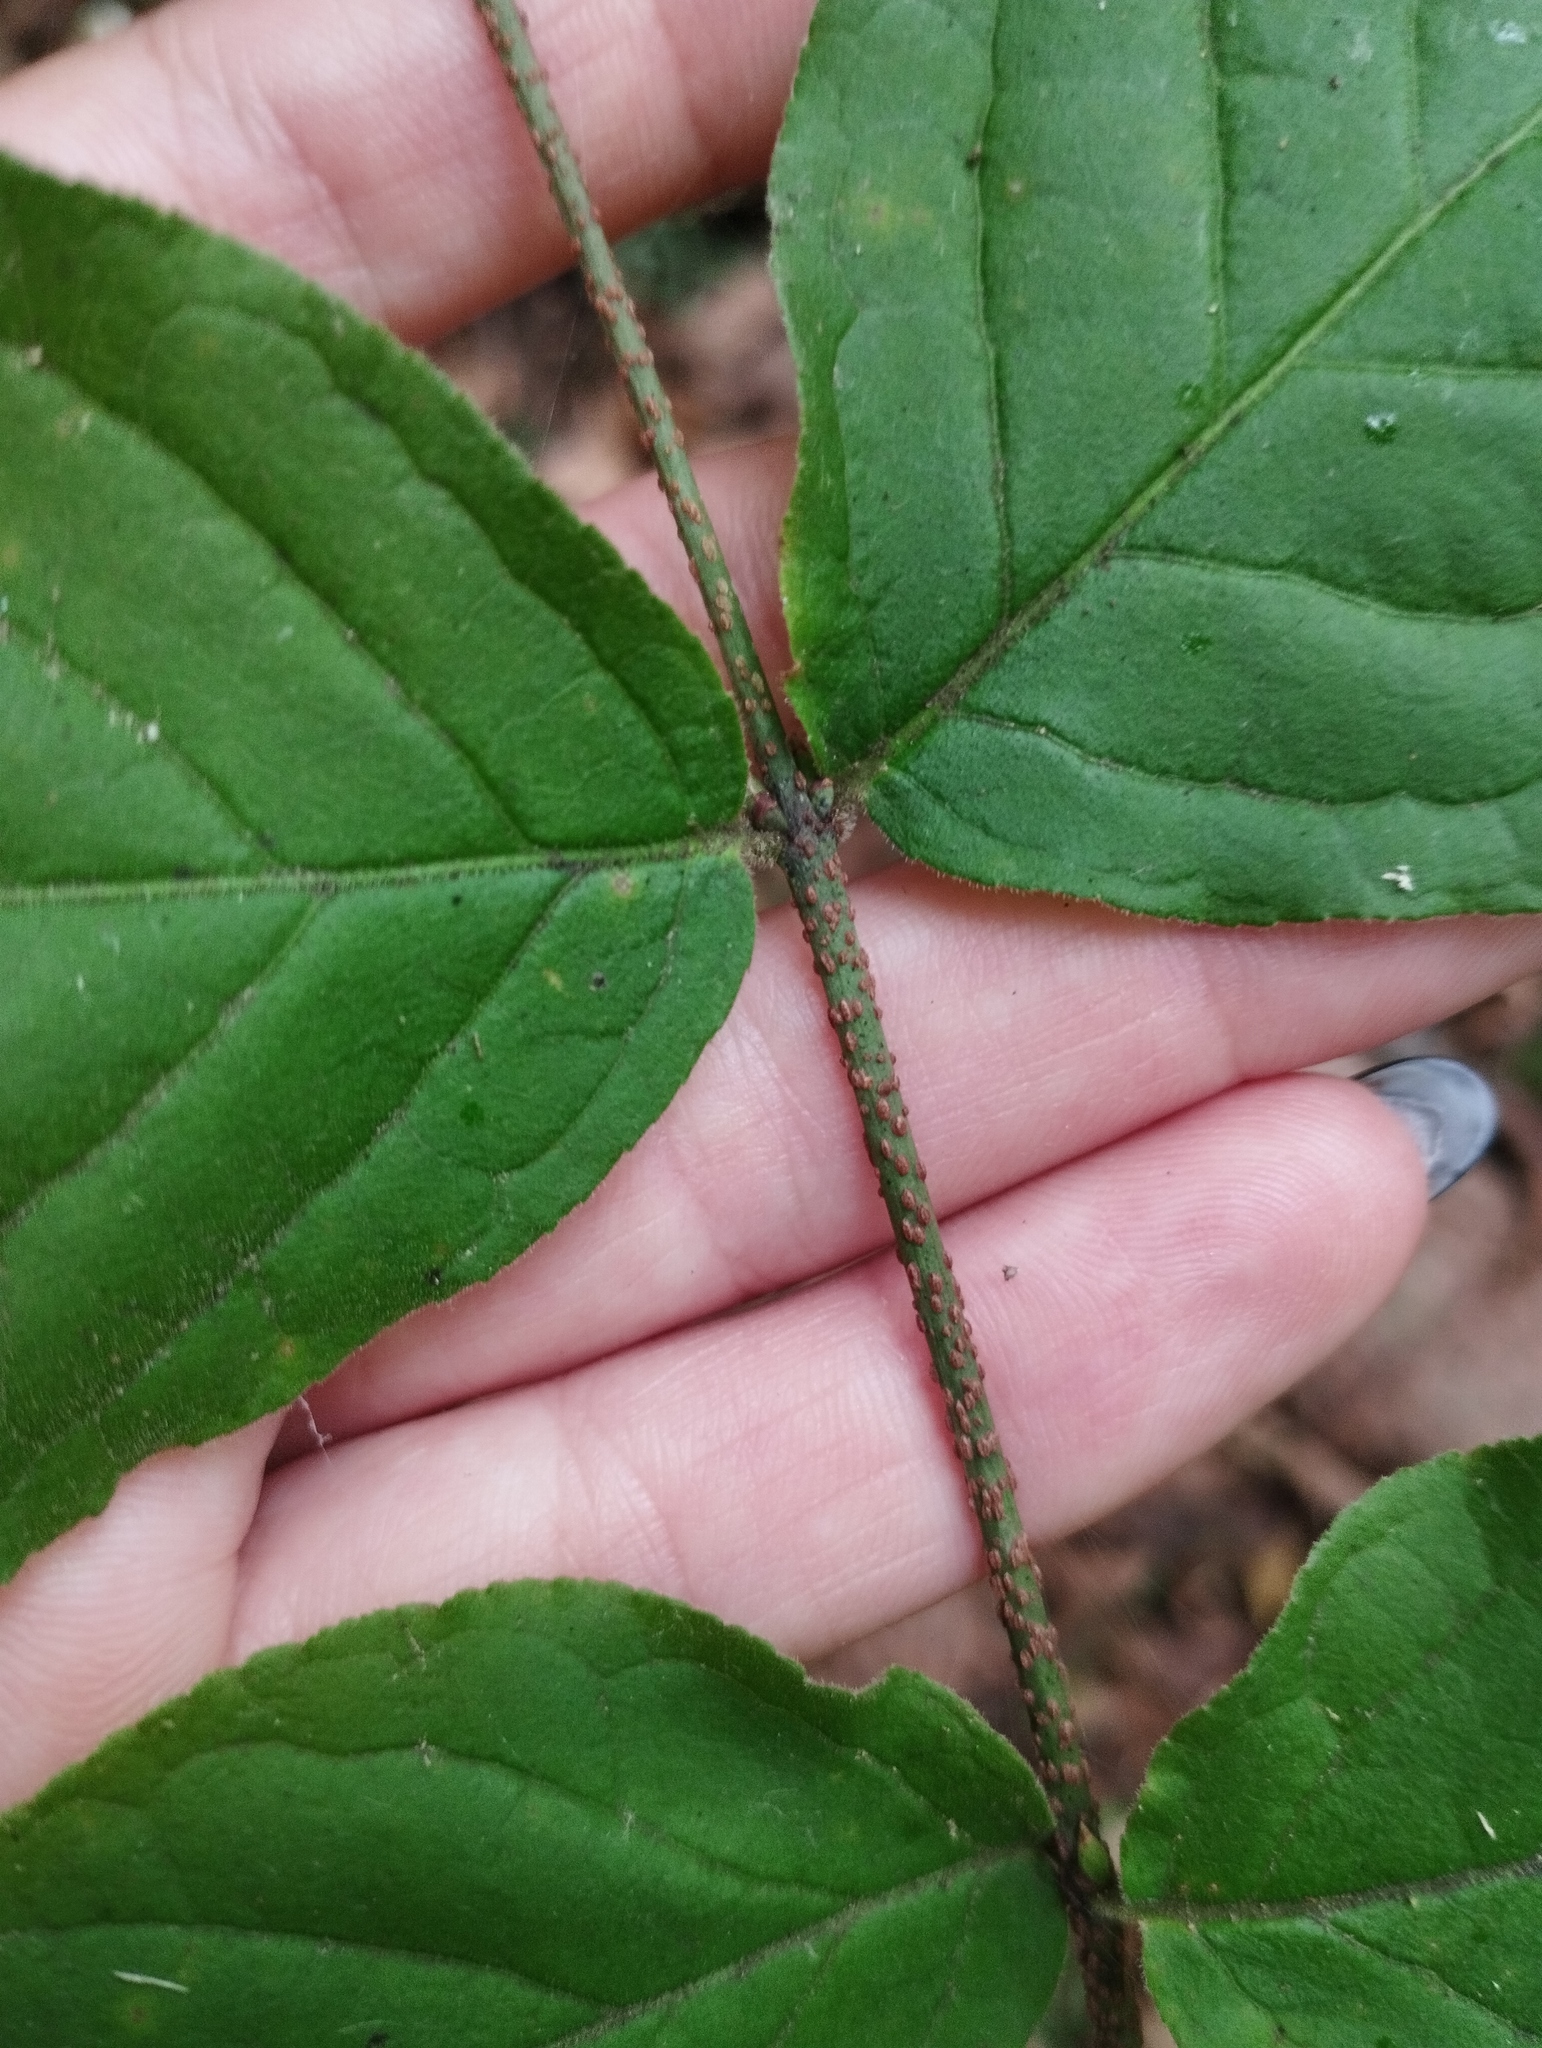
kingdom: Plantae
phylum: Tracheophyta
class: Magnoliopsida
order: Celastrales
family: Celastraceae
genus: Euonymus
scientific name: Euonymus verrucosus
